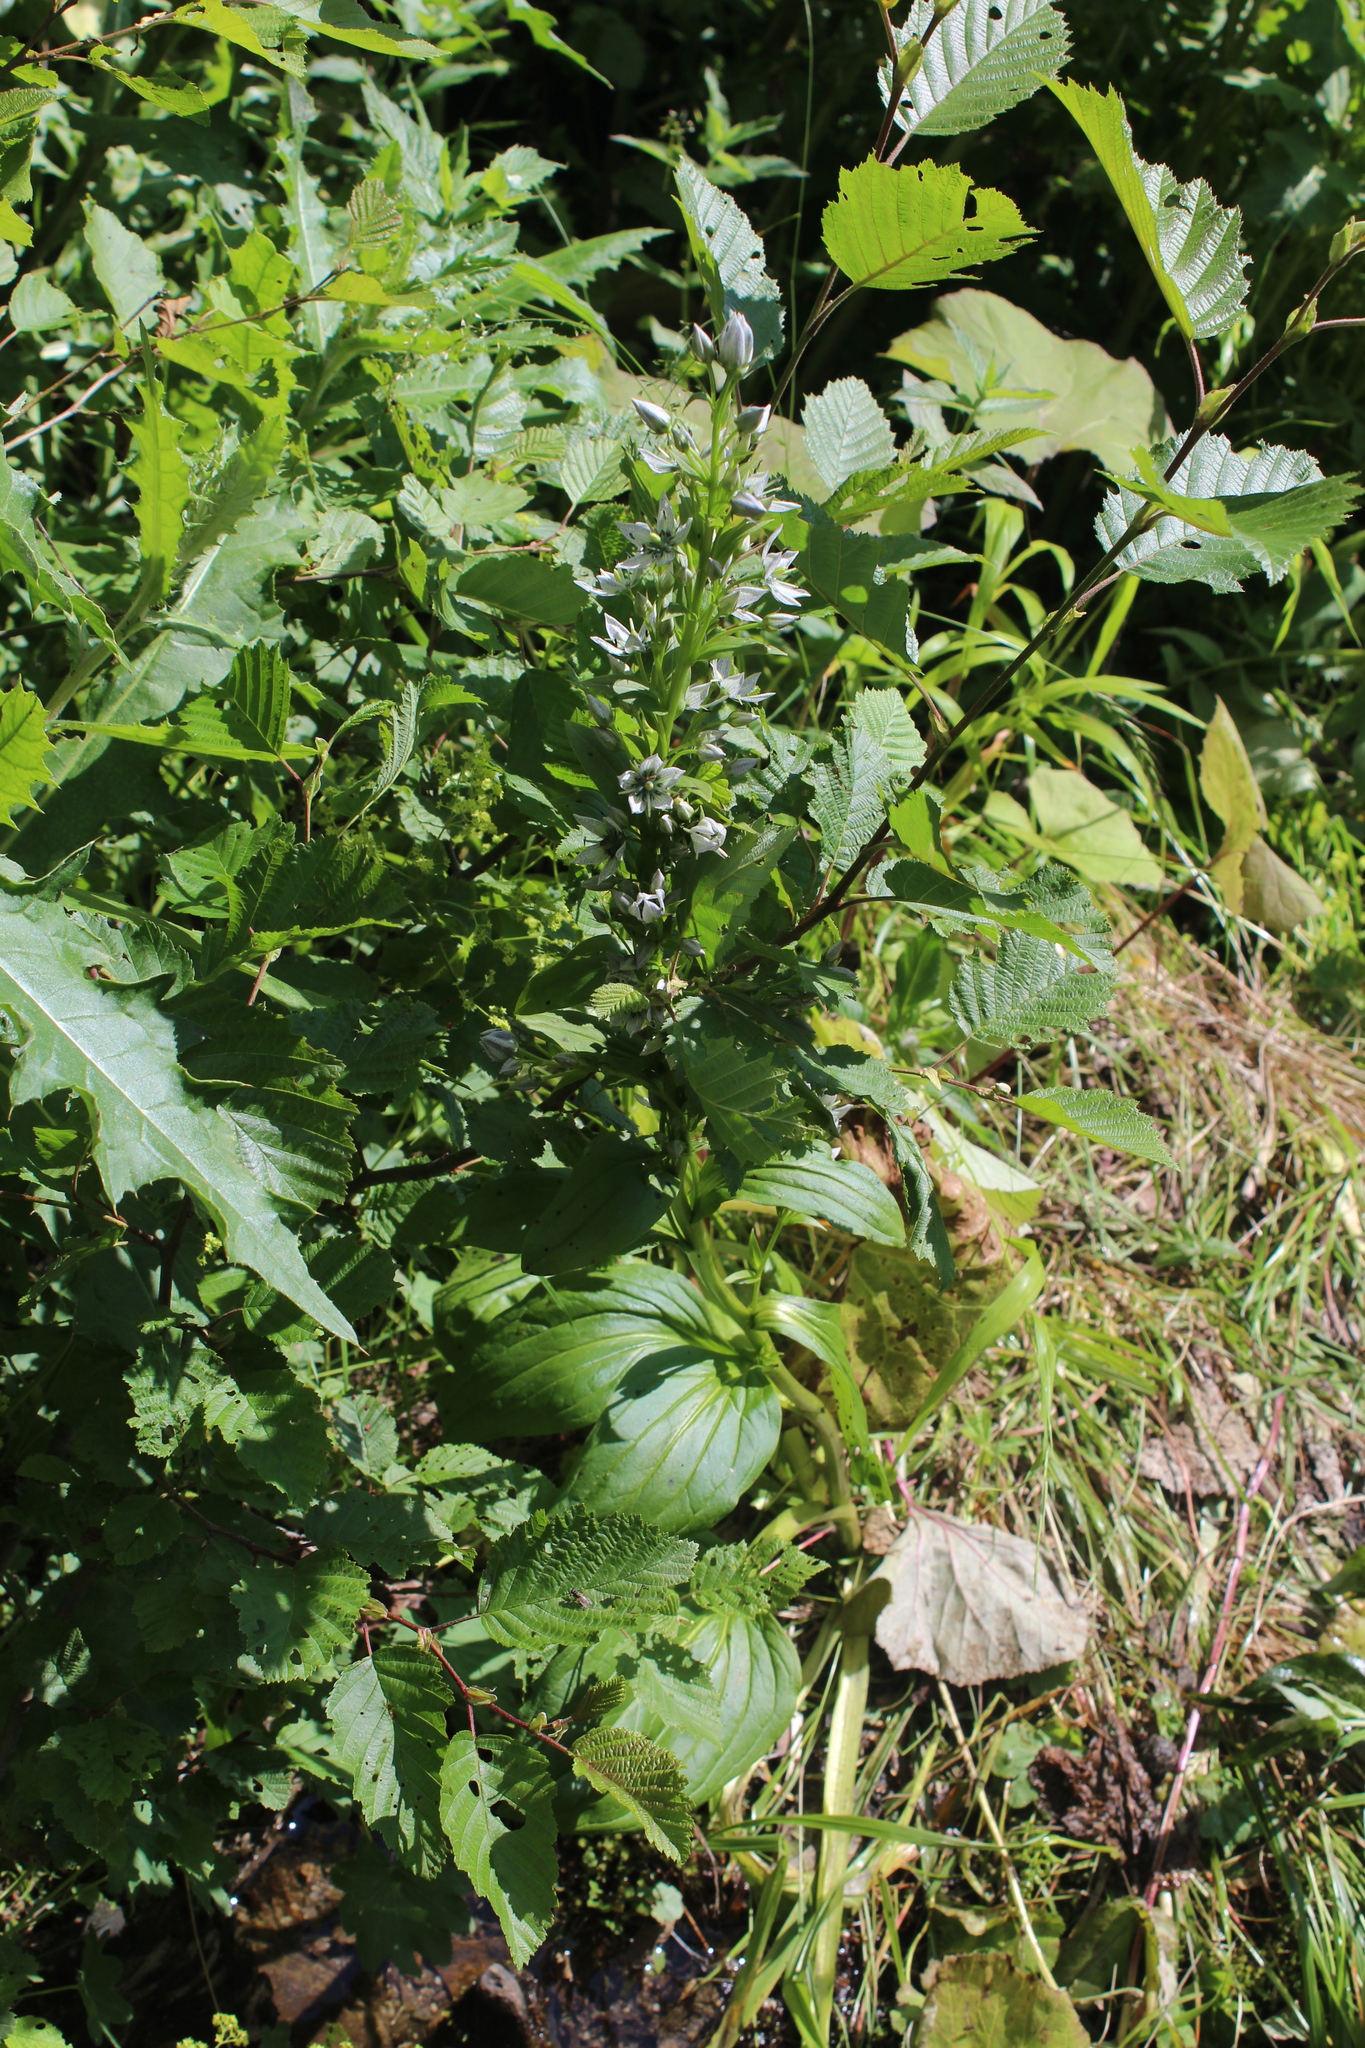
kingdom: Plantae
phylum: Tracheophyta
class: Magnoliopsida
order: Gentianales
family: Gentianaceae
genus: Swertia
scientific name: Swertia iberica
